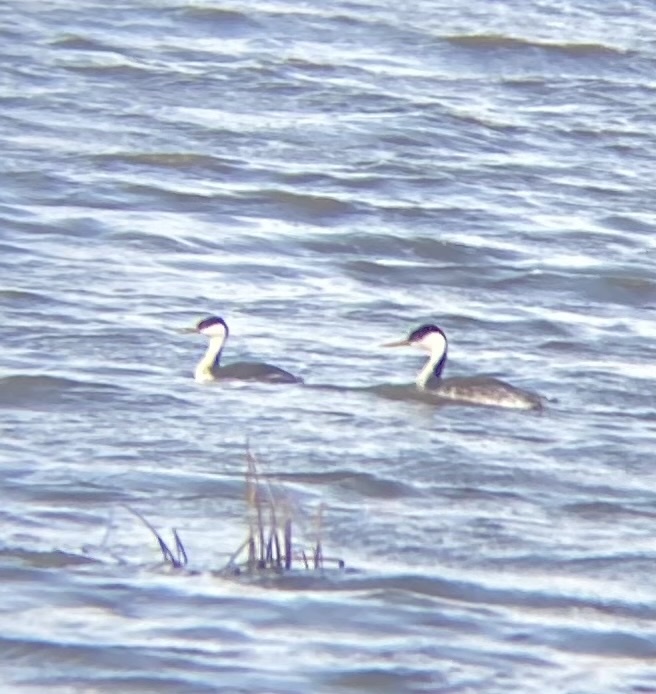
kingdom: Animalia
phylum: Chordata
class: Aves
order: Podicipediformes
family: Podicipedidae
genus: Aechmophorus
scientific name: Aechmophorus occidentalis
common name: Western grebe
